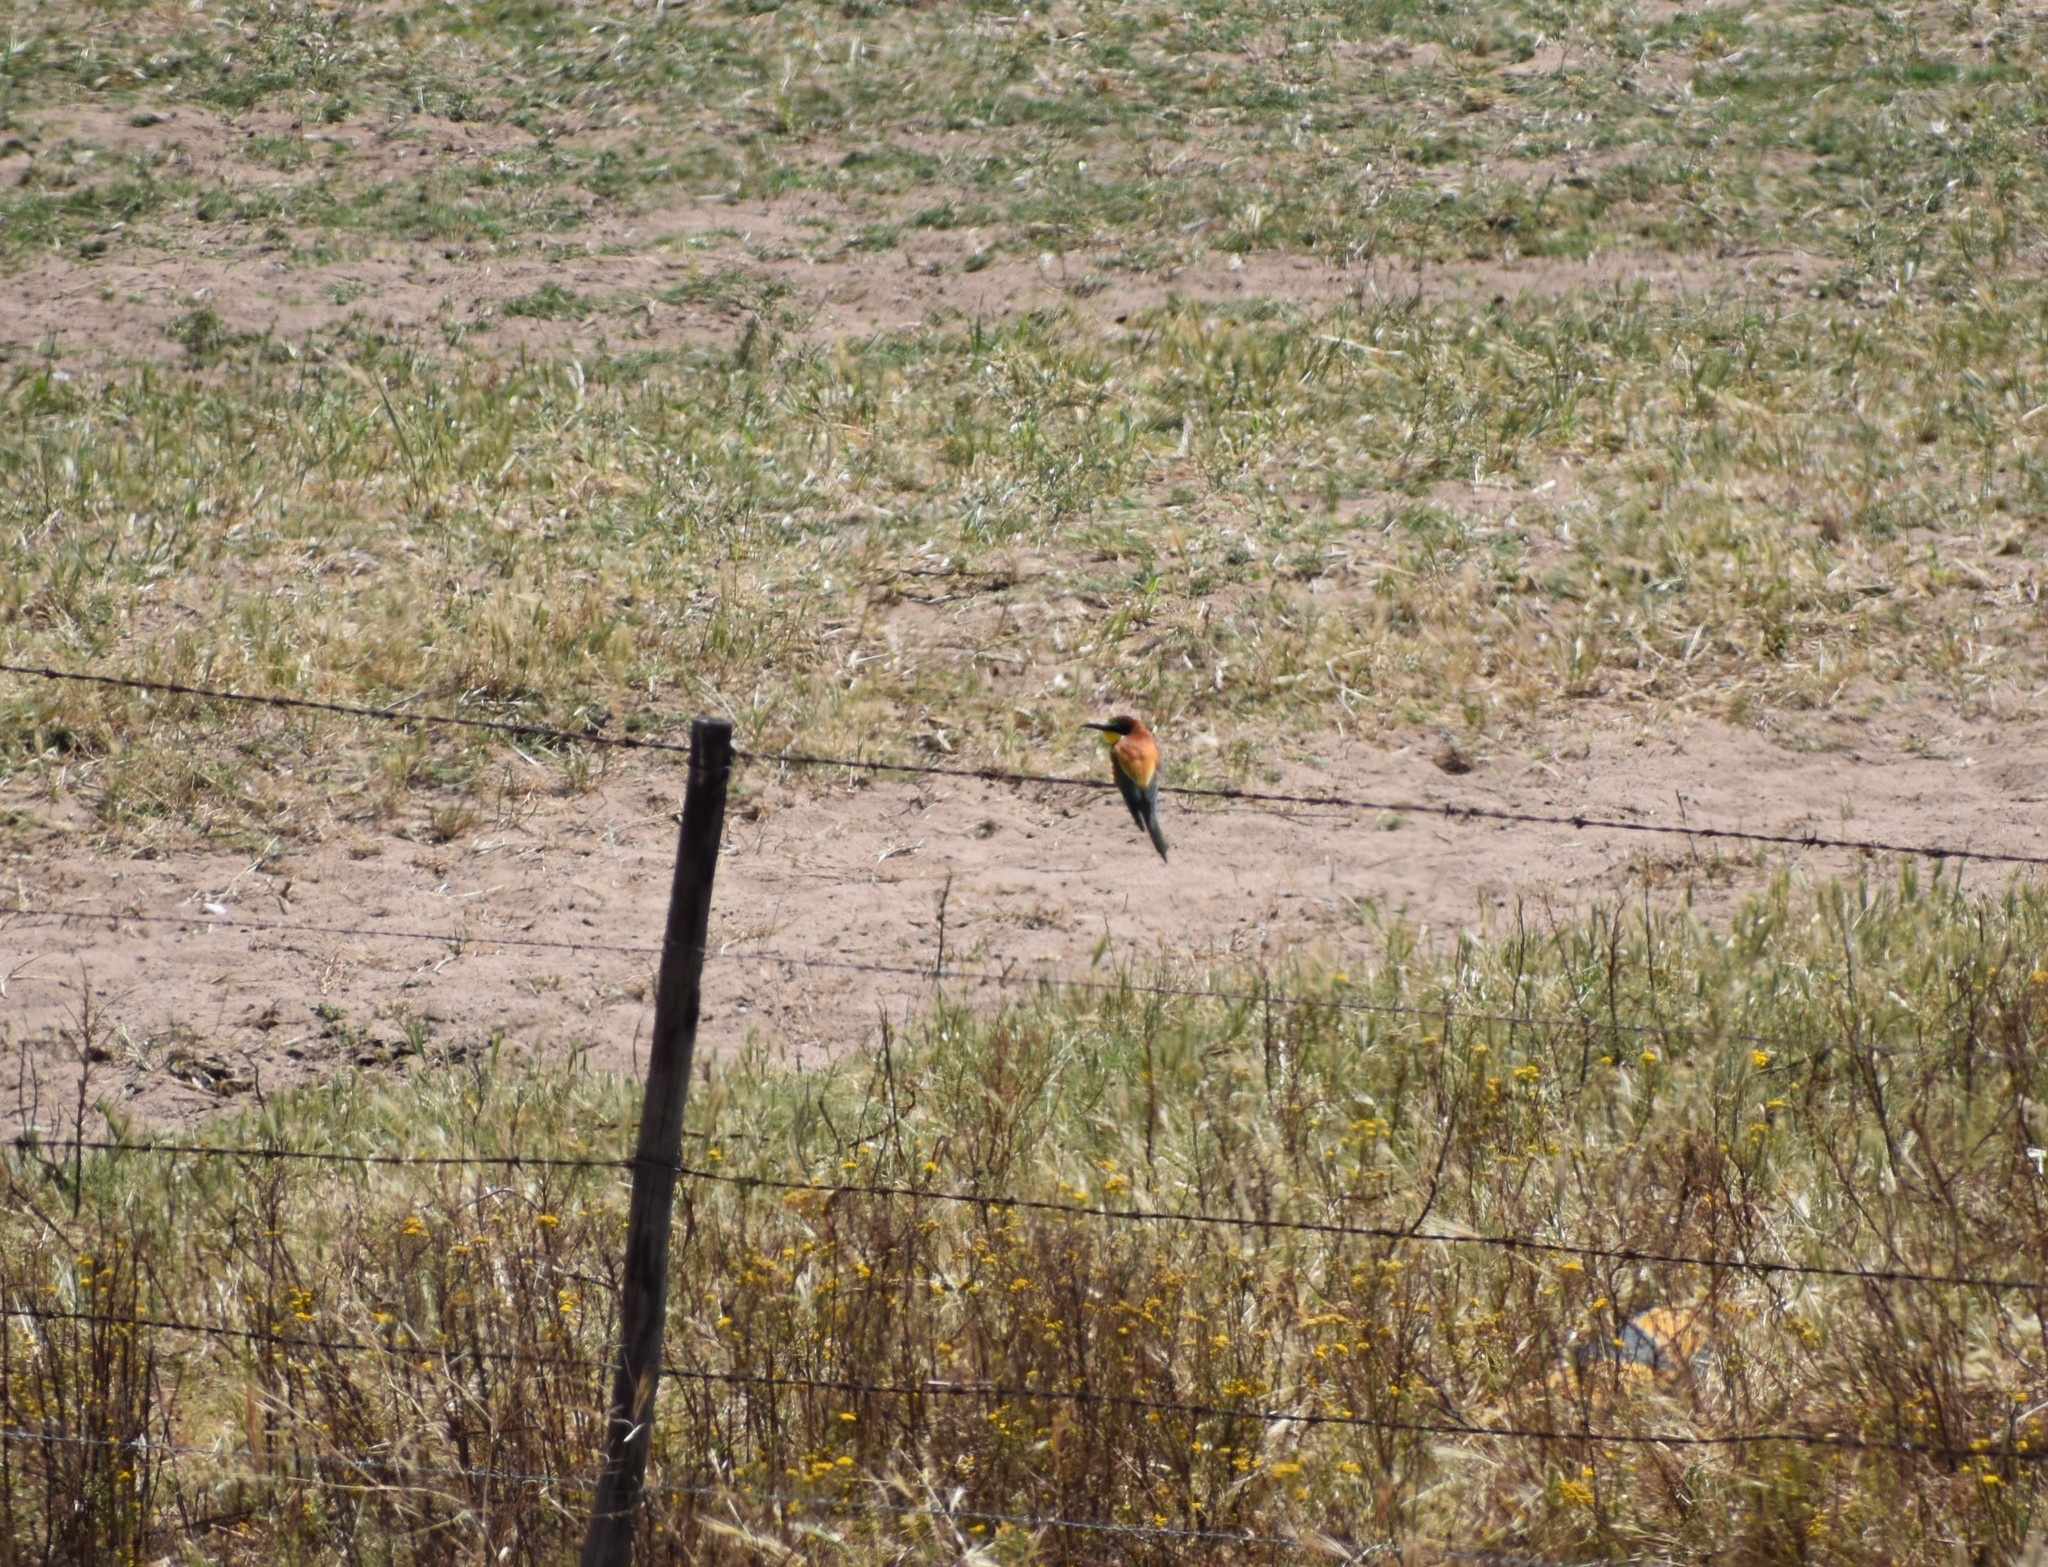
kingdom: Animalia
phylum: Chordata
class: Aves
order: Coraciiformes
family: Meropidae
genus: Merops
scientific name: Merops apiaster
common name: European bee-eater
